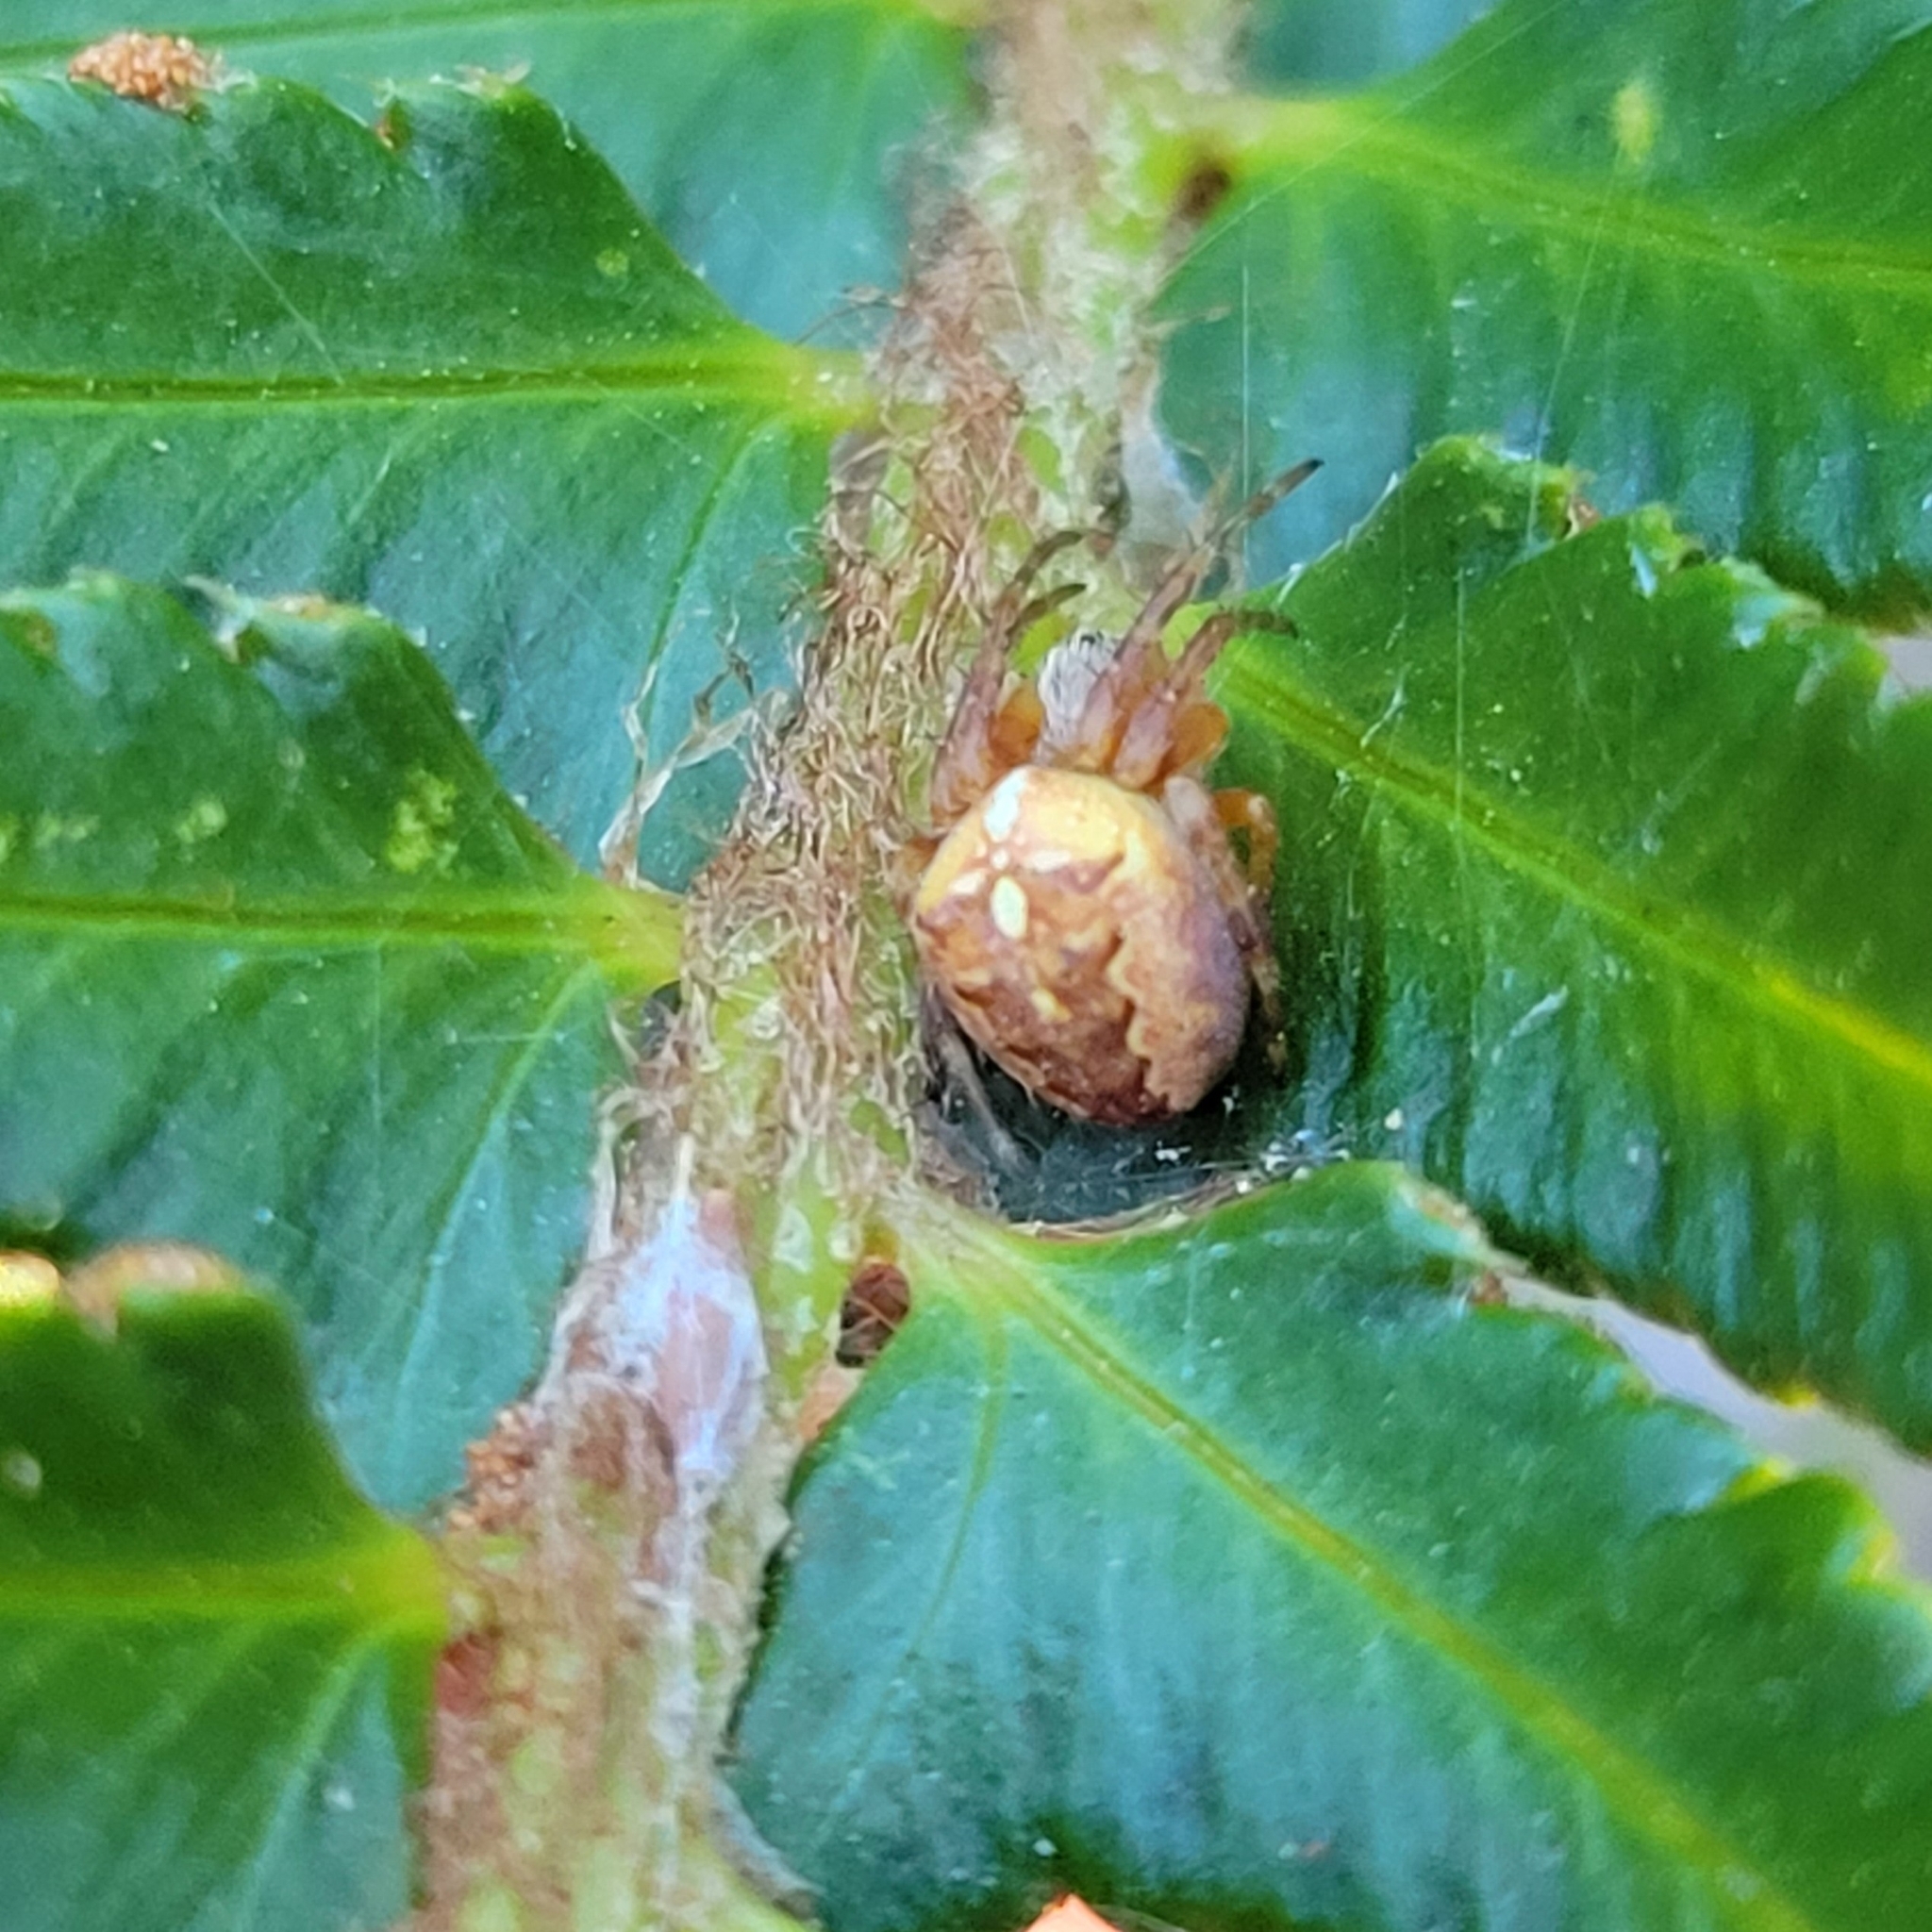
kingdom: Animalia
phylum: Arthropoda
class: Arachnida
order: Araneae
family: Araneidae
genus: Araneus
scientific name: Araneus diadematus
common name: Cross orbweaver
